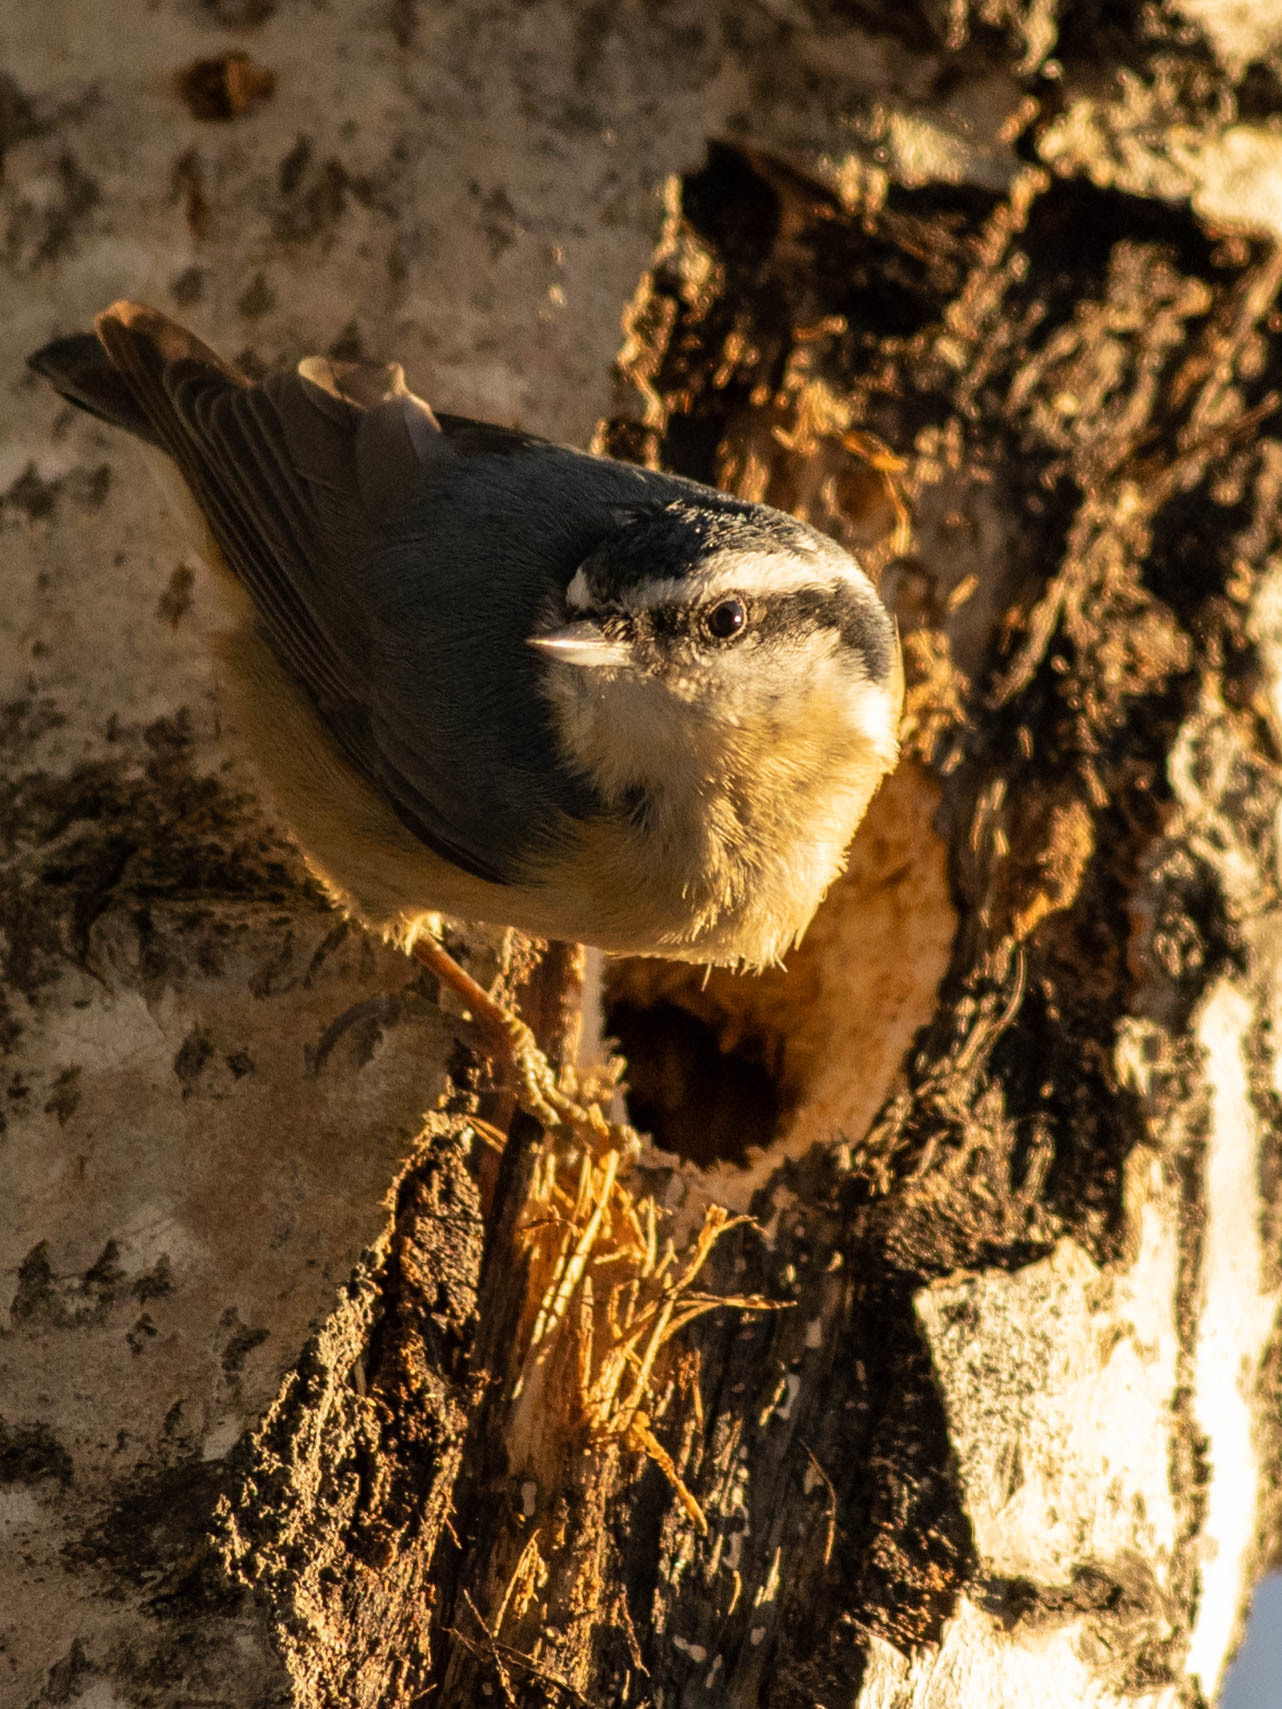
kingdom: Animalia
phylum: Chordata
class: Aves
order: Passeriformes
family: Sittidae
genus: Sitta
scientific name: Sitta canadensis
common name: Red-breasted nuthatch
